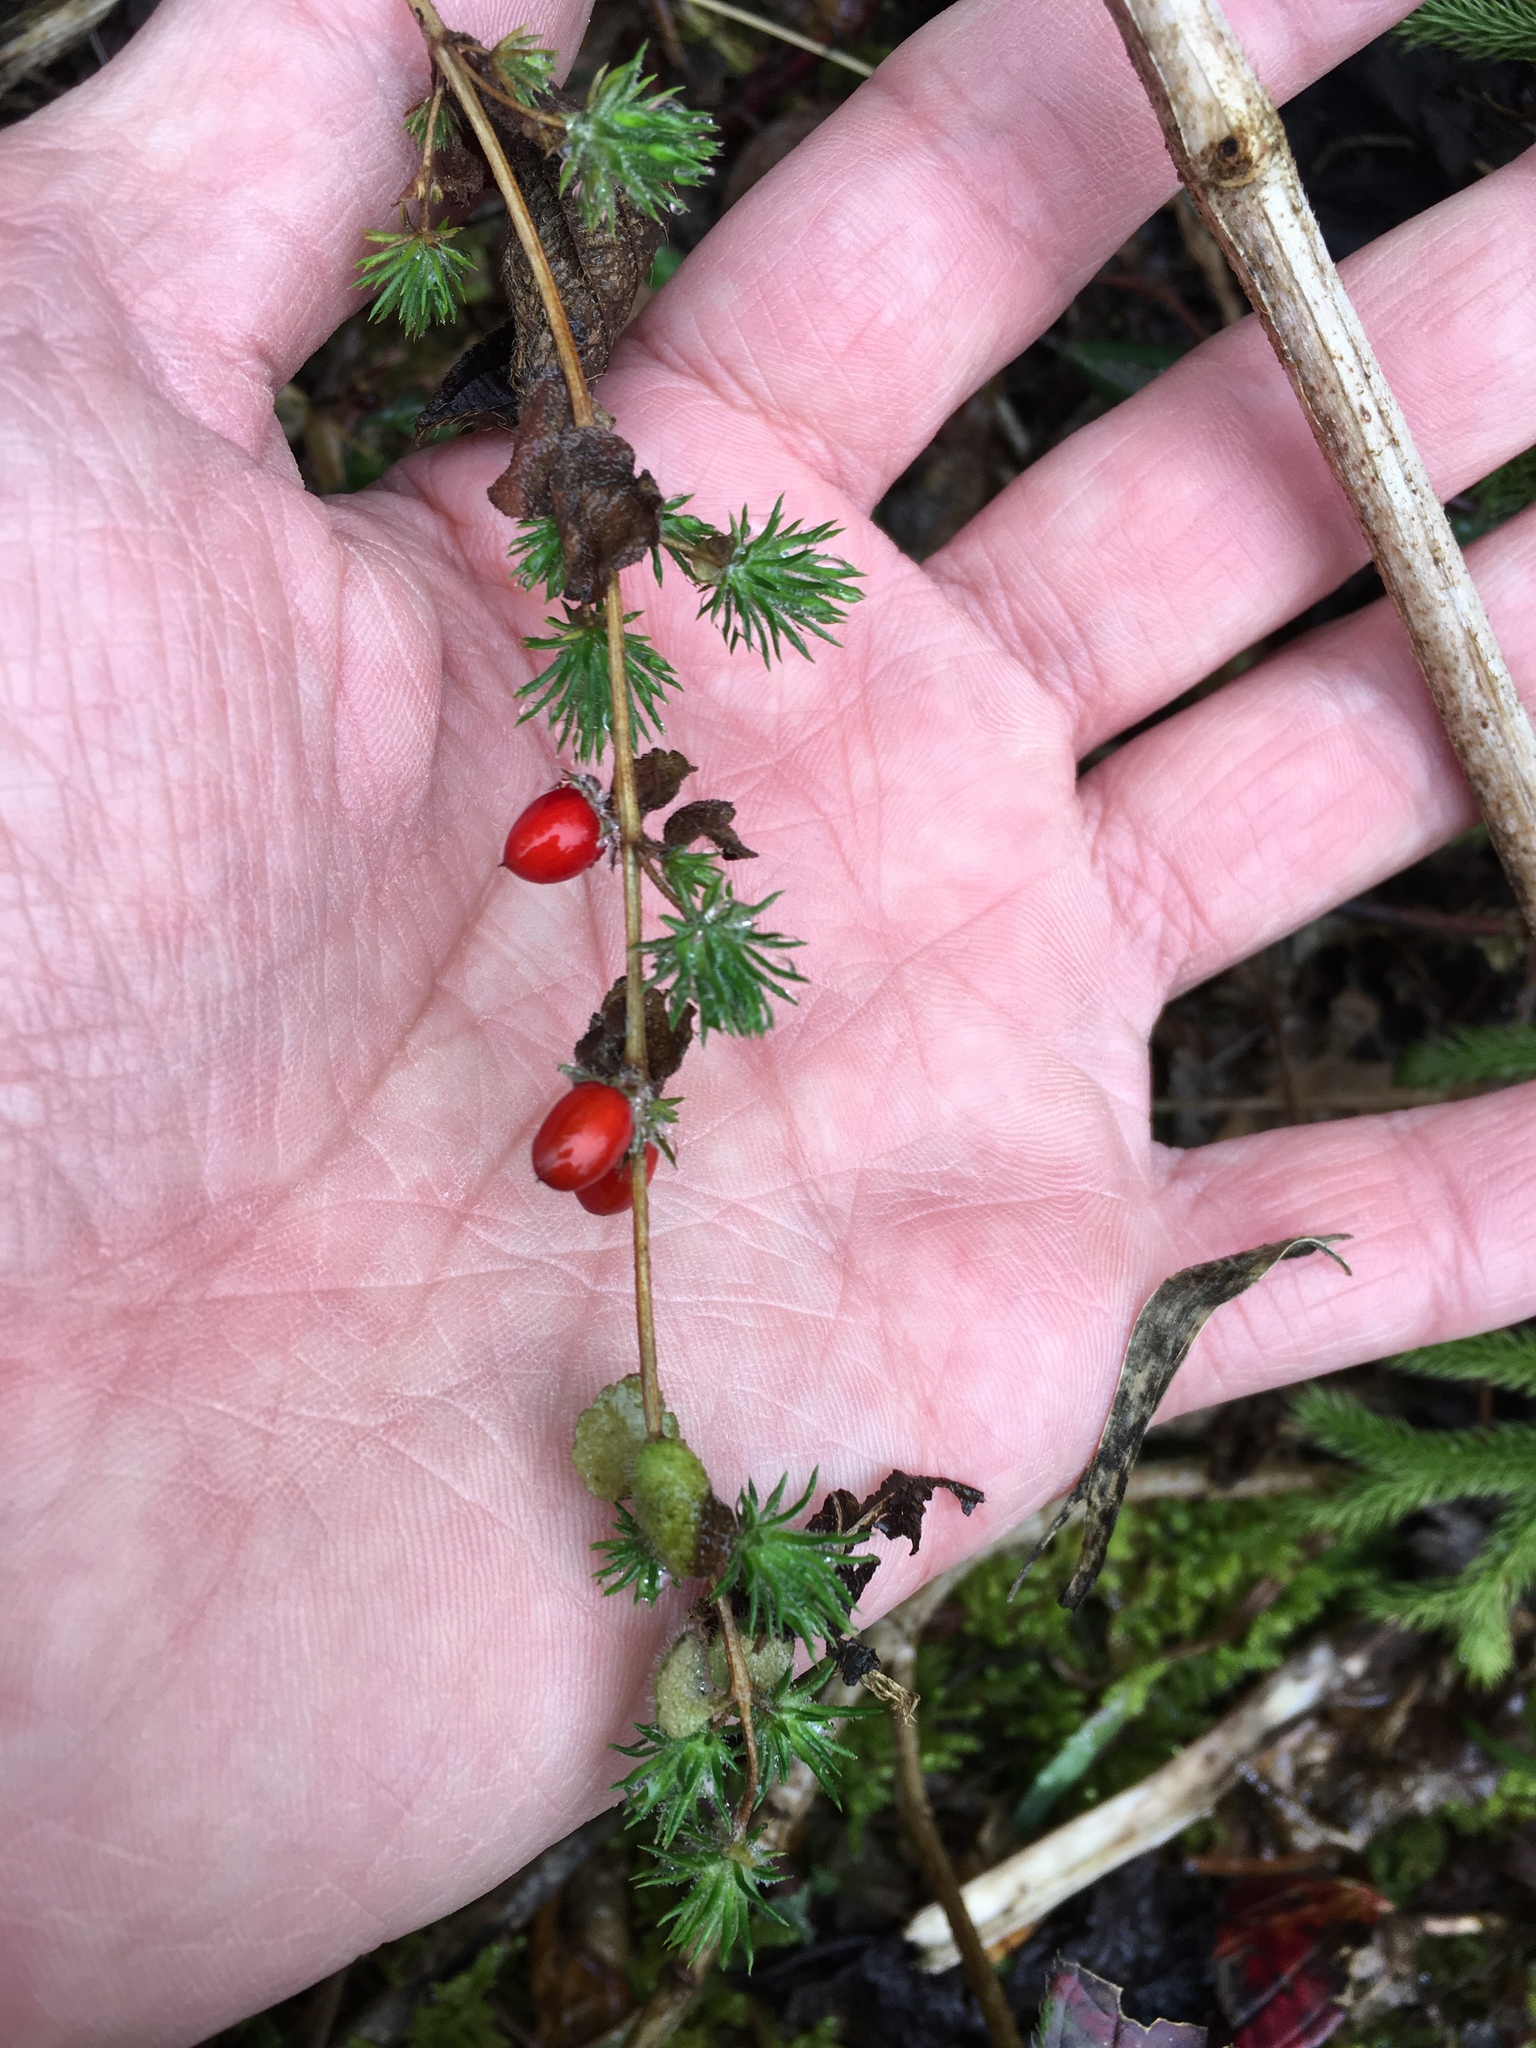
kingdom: Plantae
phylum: Tracheophyta
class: Magnoliopsida
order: Lamiales
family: Plantaginaceae
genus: Hemiphragma
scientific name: Hemiphragma heterophyllum
